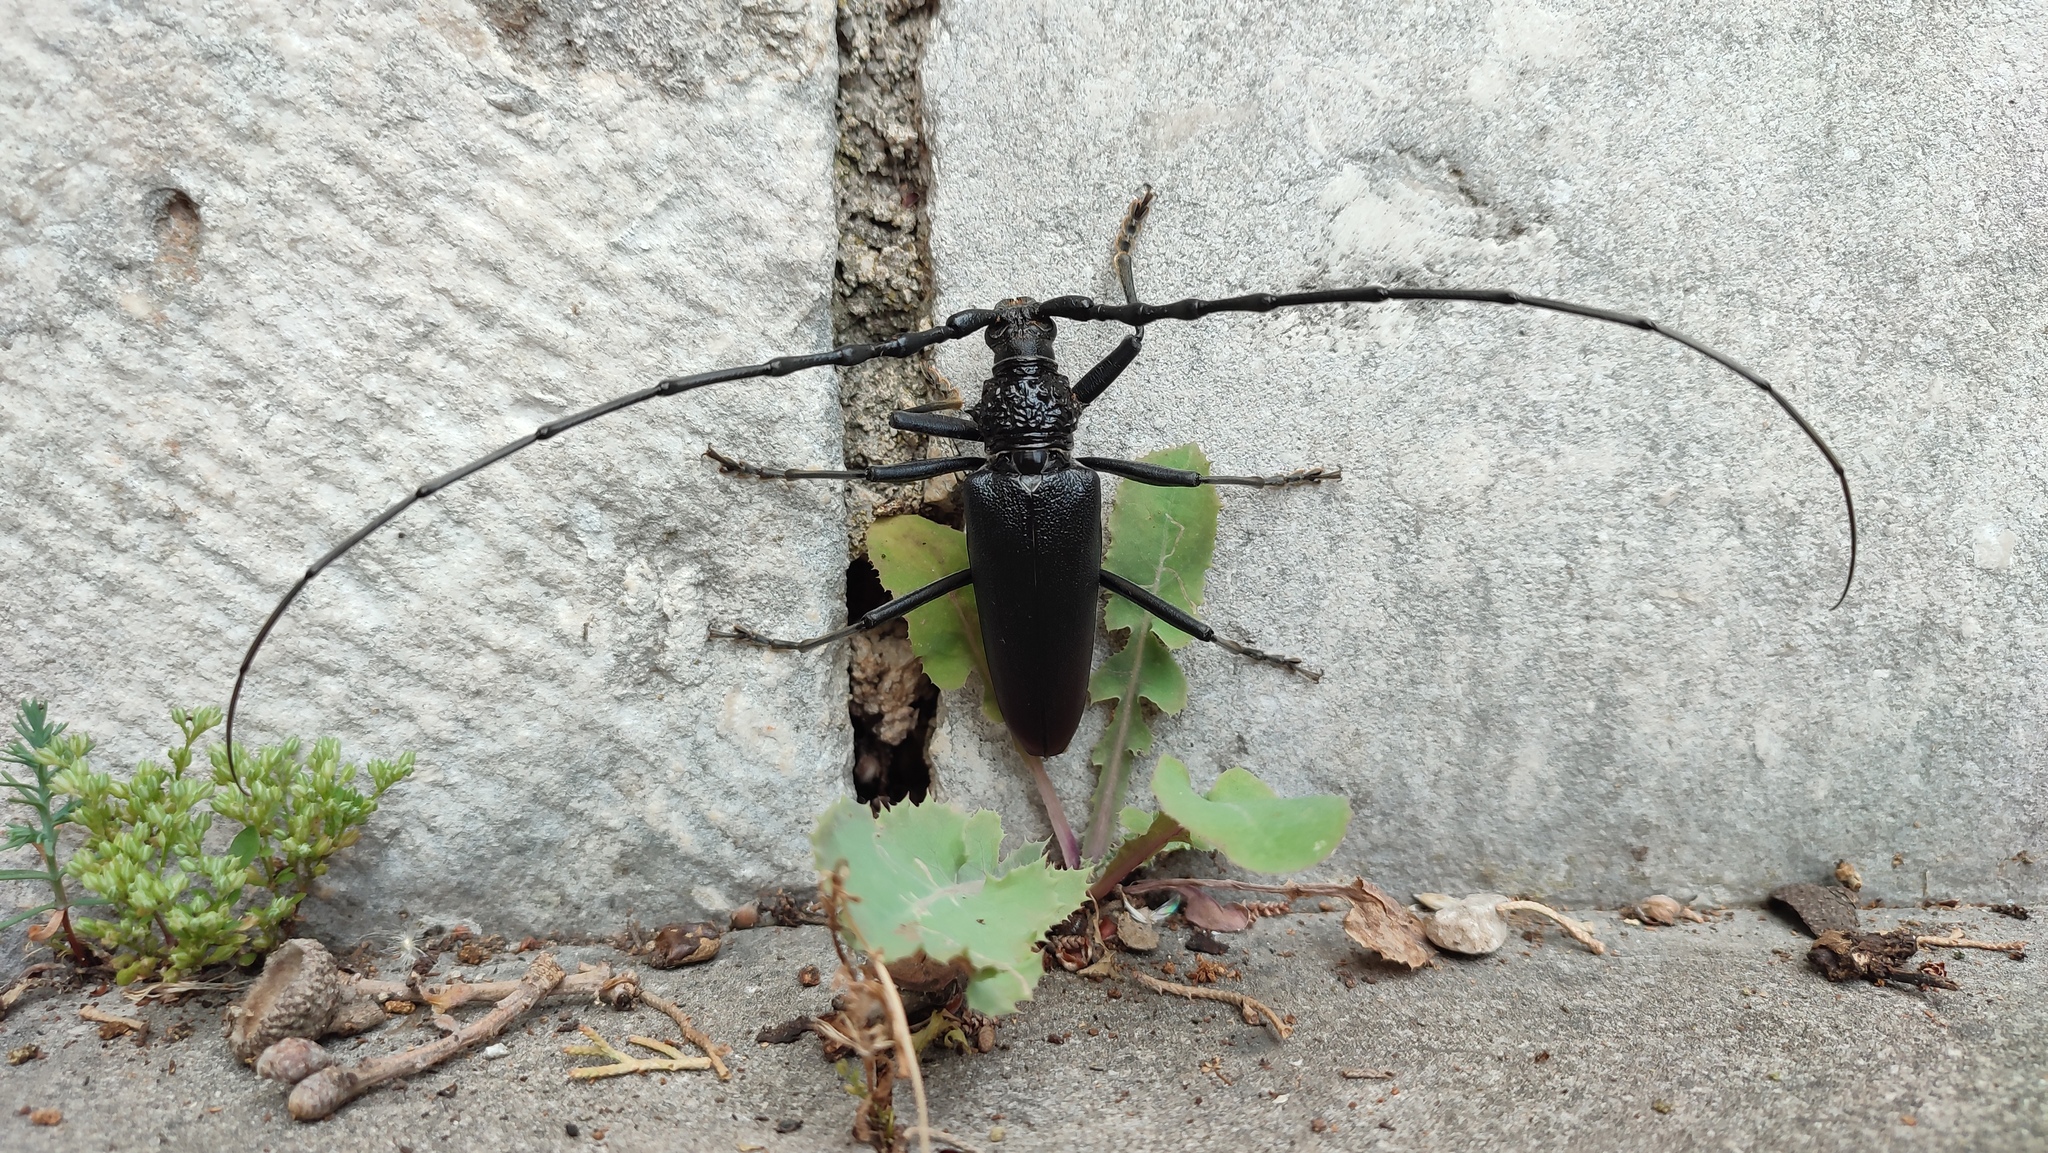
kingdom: Animalia
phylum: Arthropoda
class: Insecta
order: Coleoptera
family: Cerambycidae
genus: Cerambyx
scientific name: Cerambyx cerdo
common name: Cerambyx longicorn
